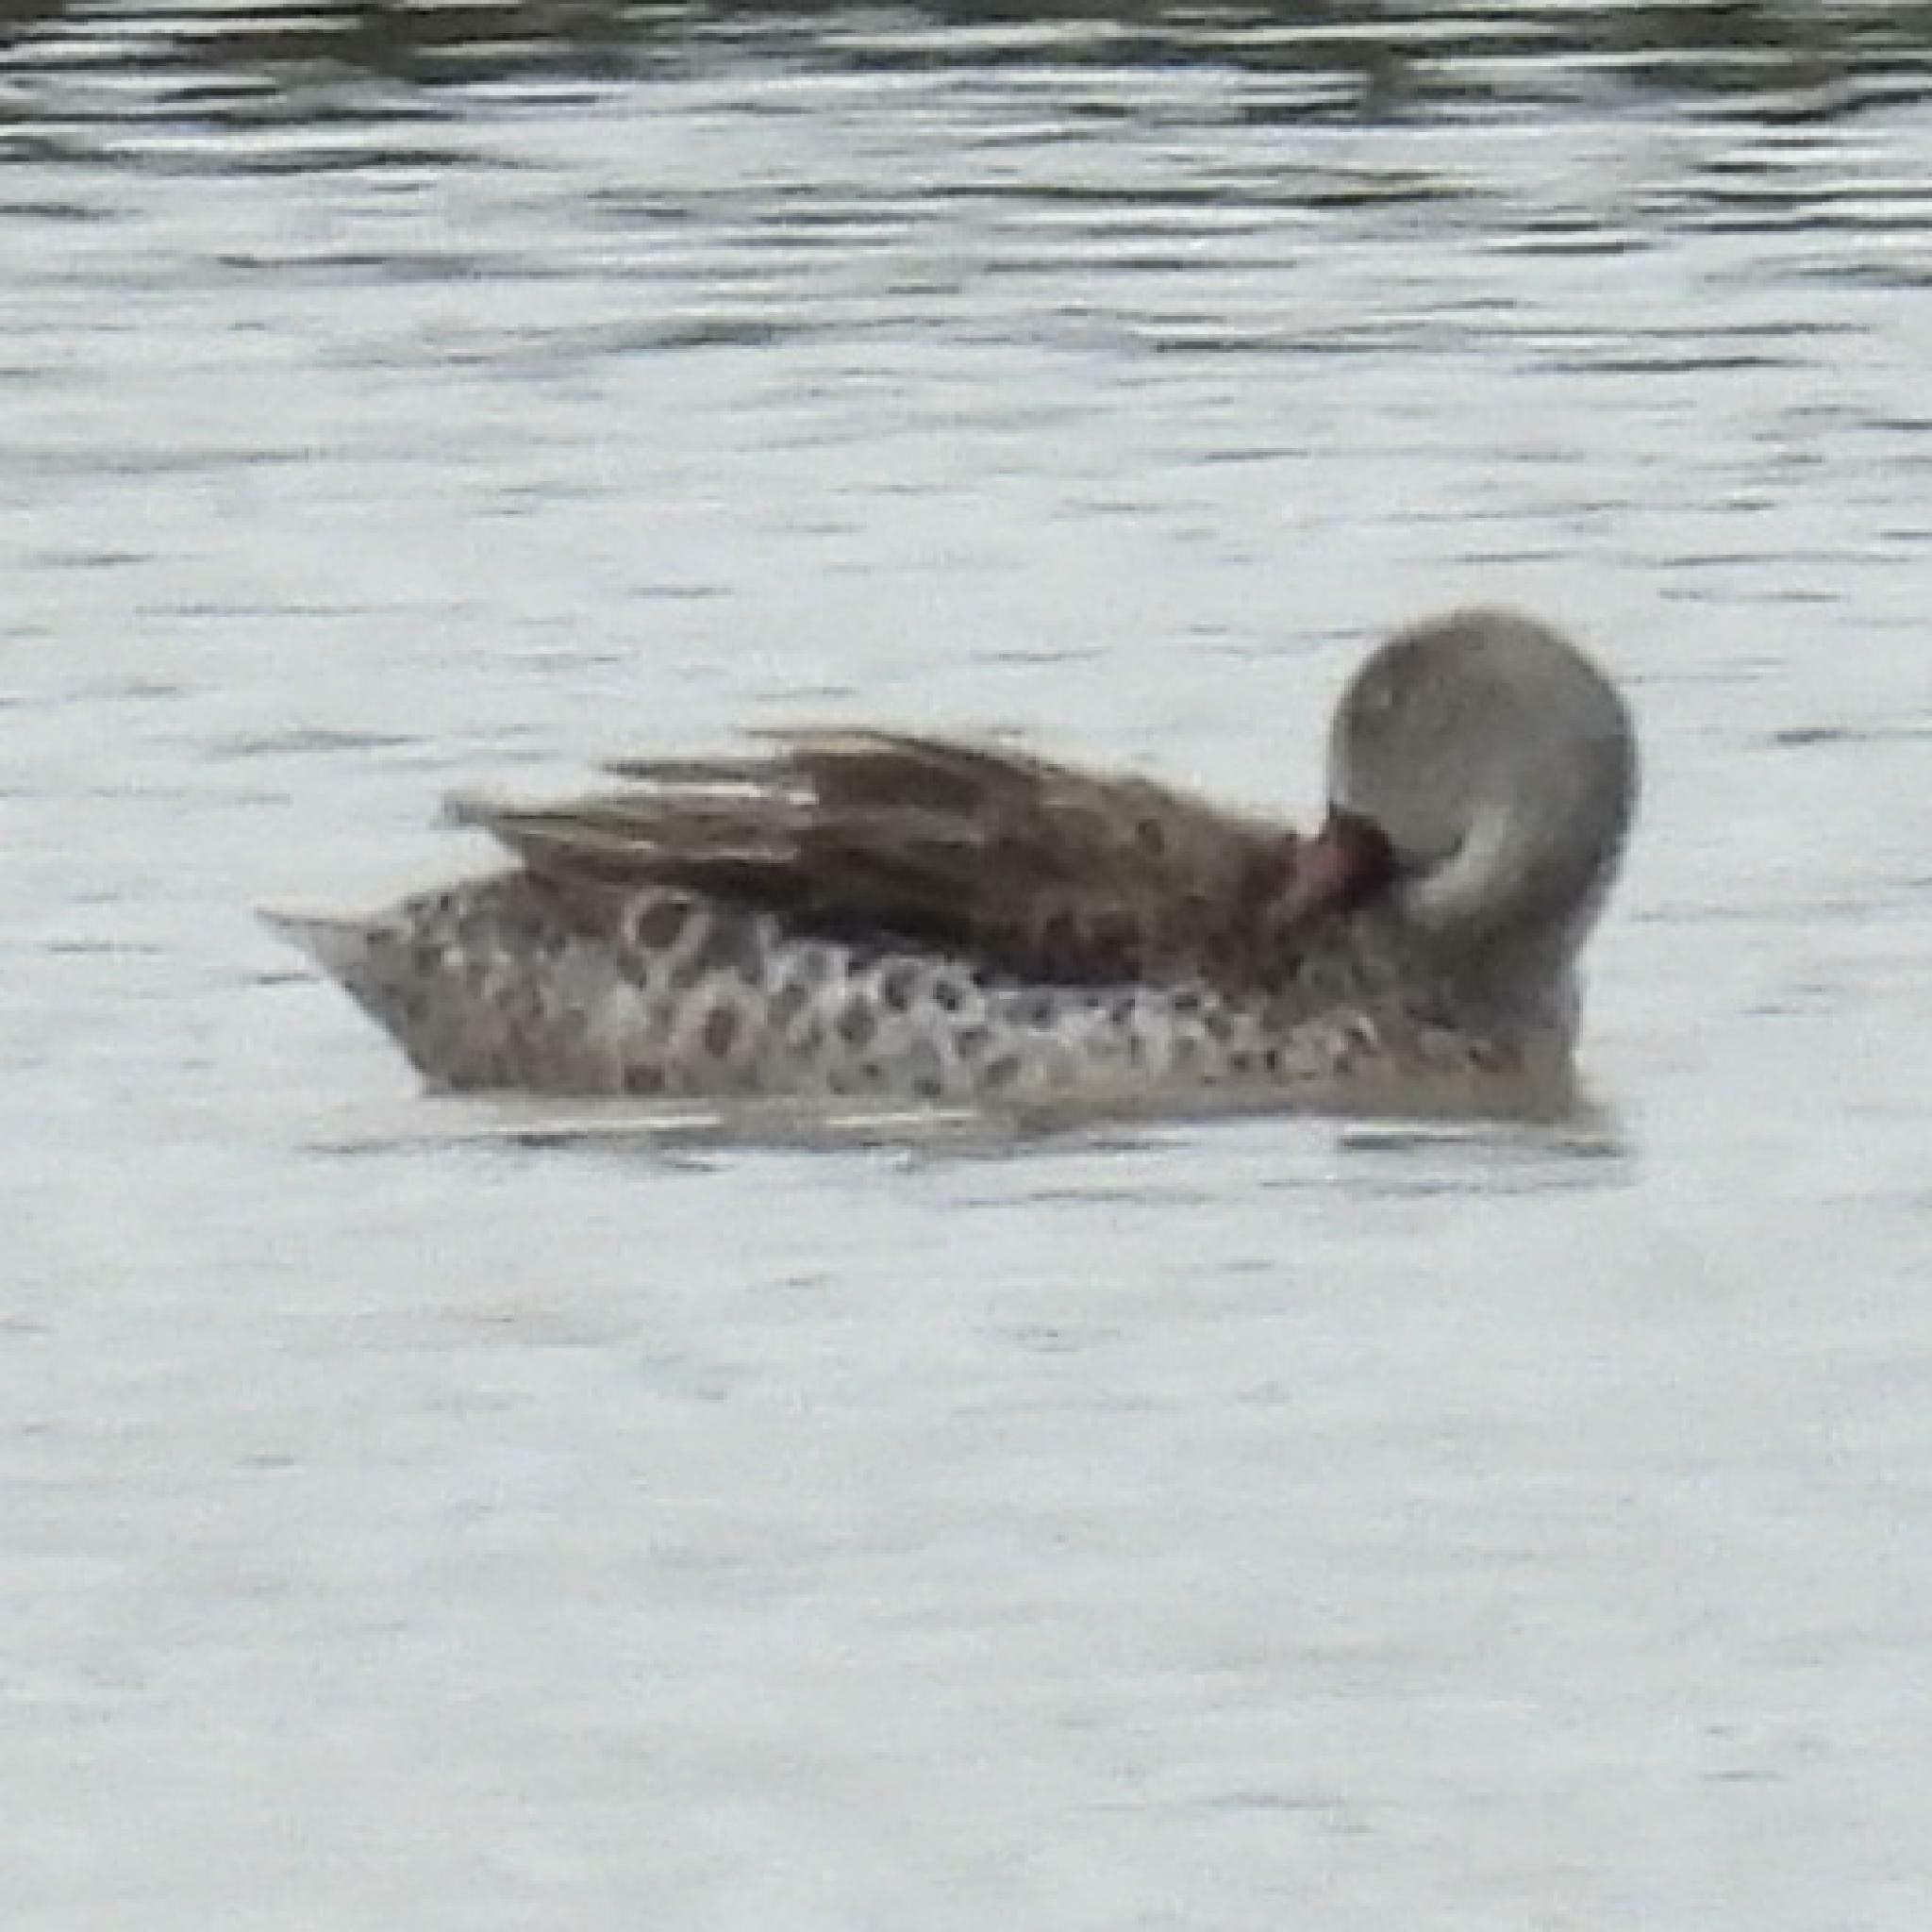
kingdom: Animalia
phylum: Chordata
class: Aves
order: Anseriformes
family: Anatidae
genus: Anas
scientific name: Anas capensis
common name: Cape teal
